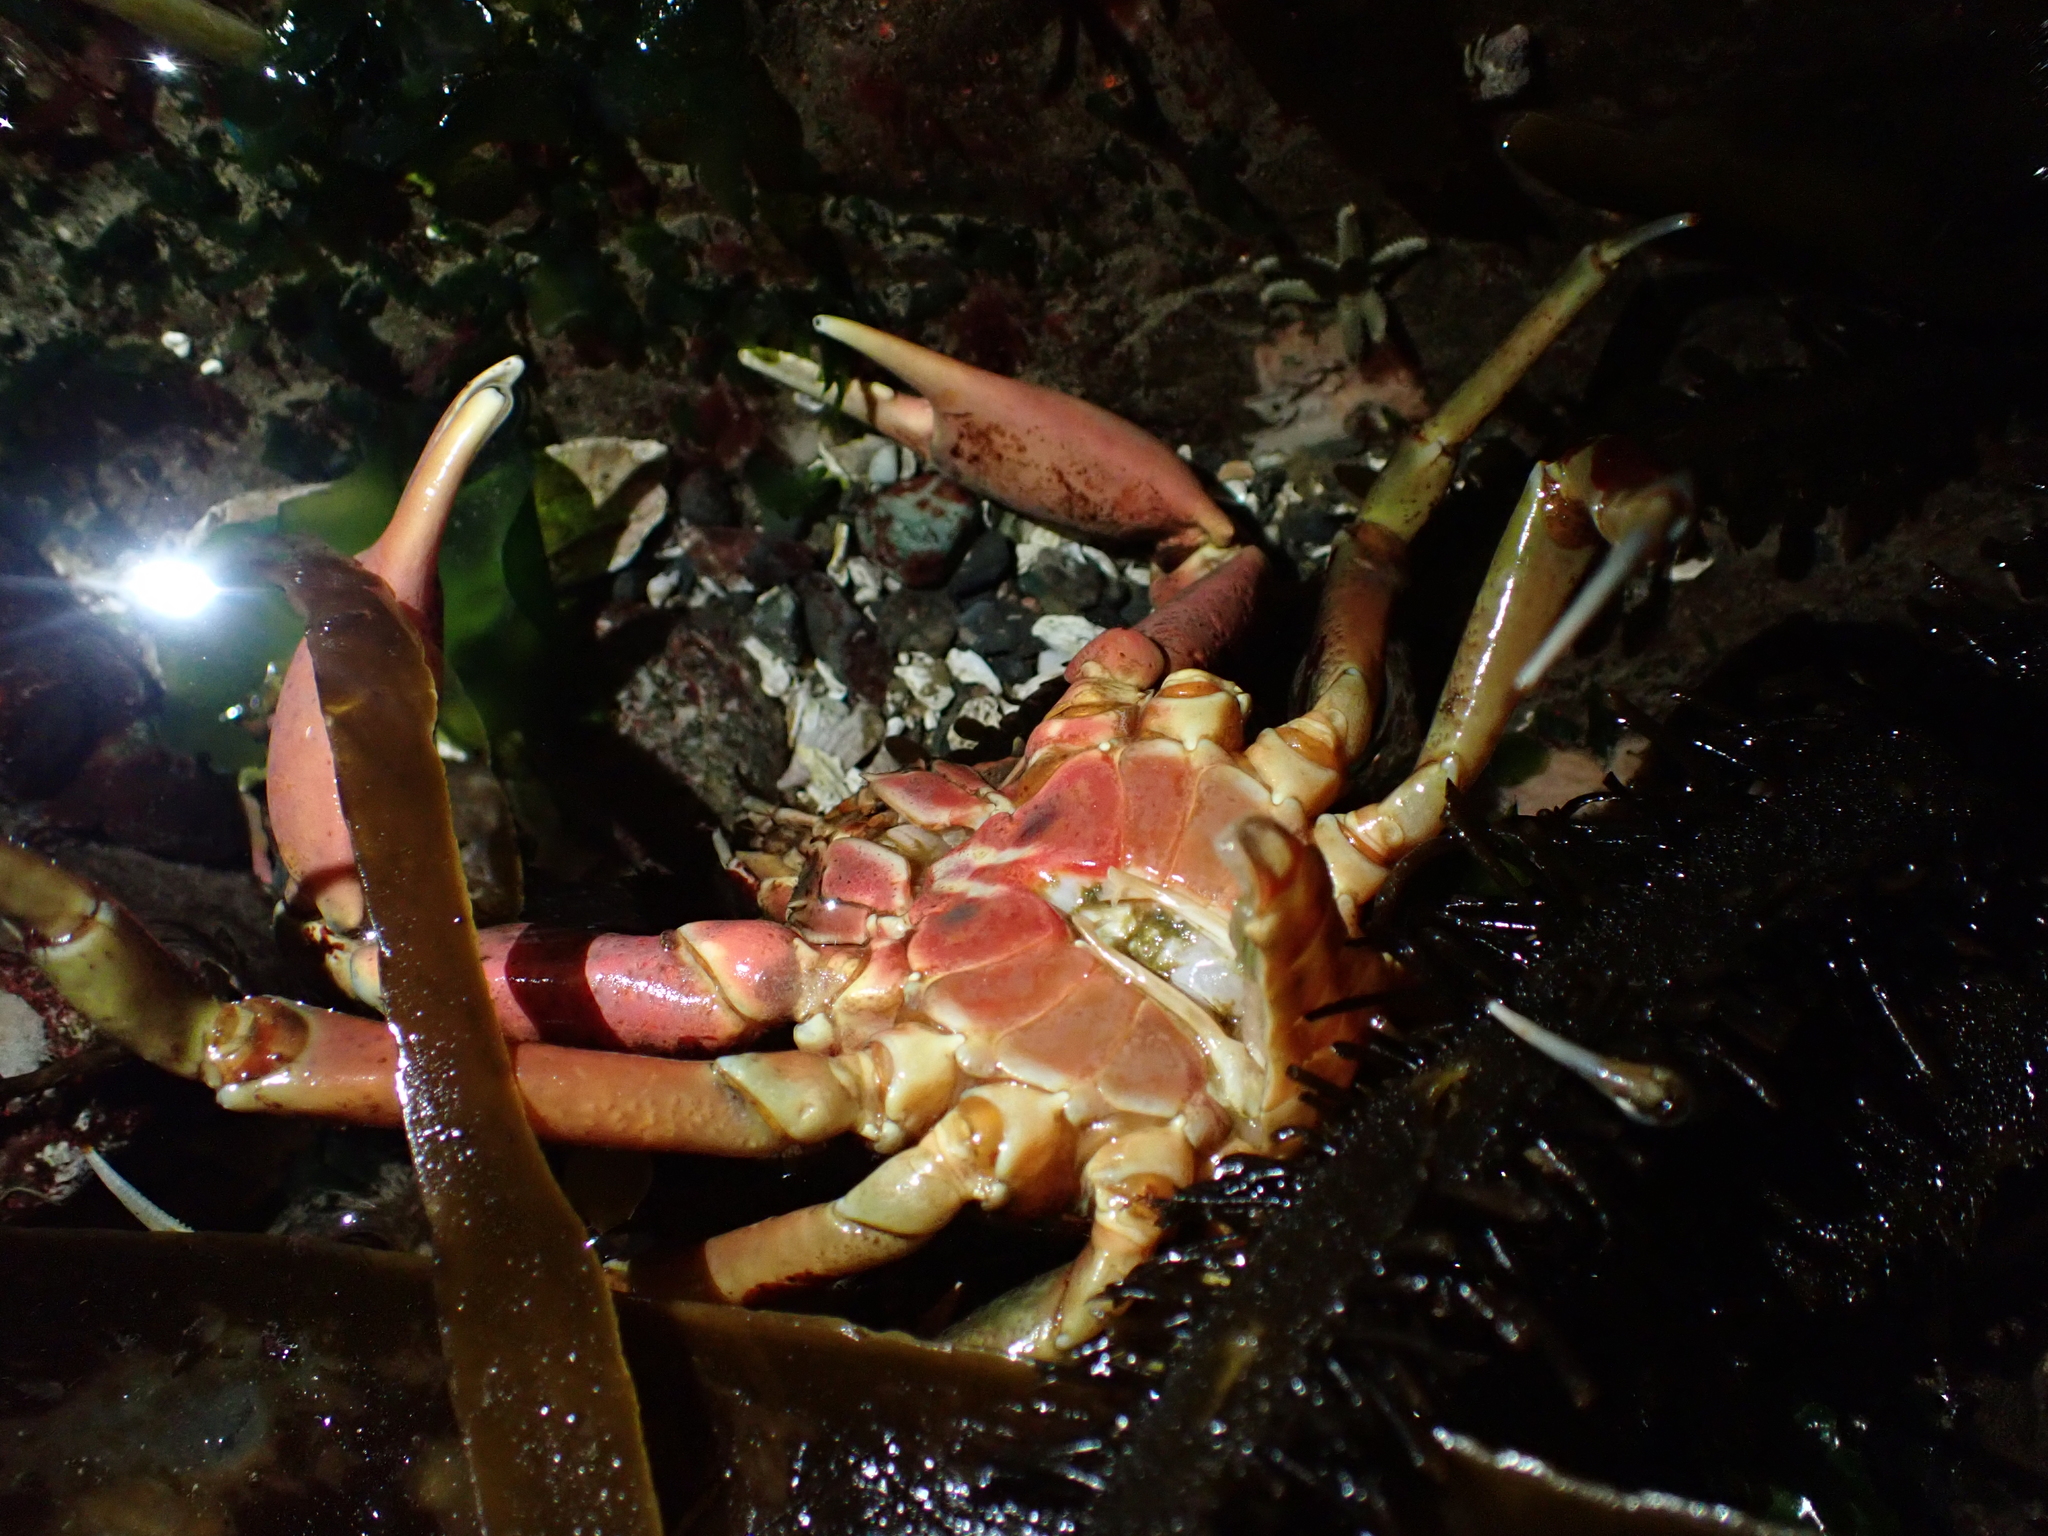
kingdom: Animalia
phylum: Arthropoda
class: Malacostraca
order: Decapoda
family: Epialtidae
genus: Pugettia
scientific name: Pugettia producta
